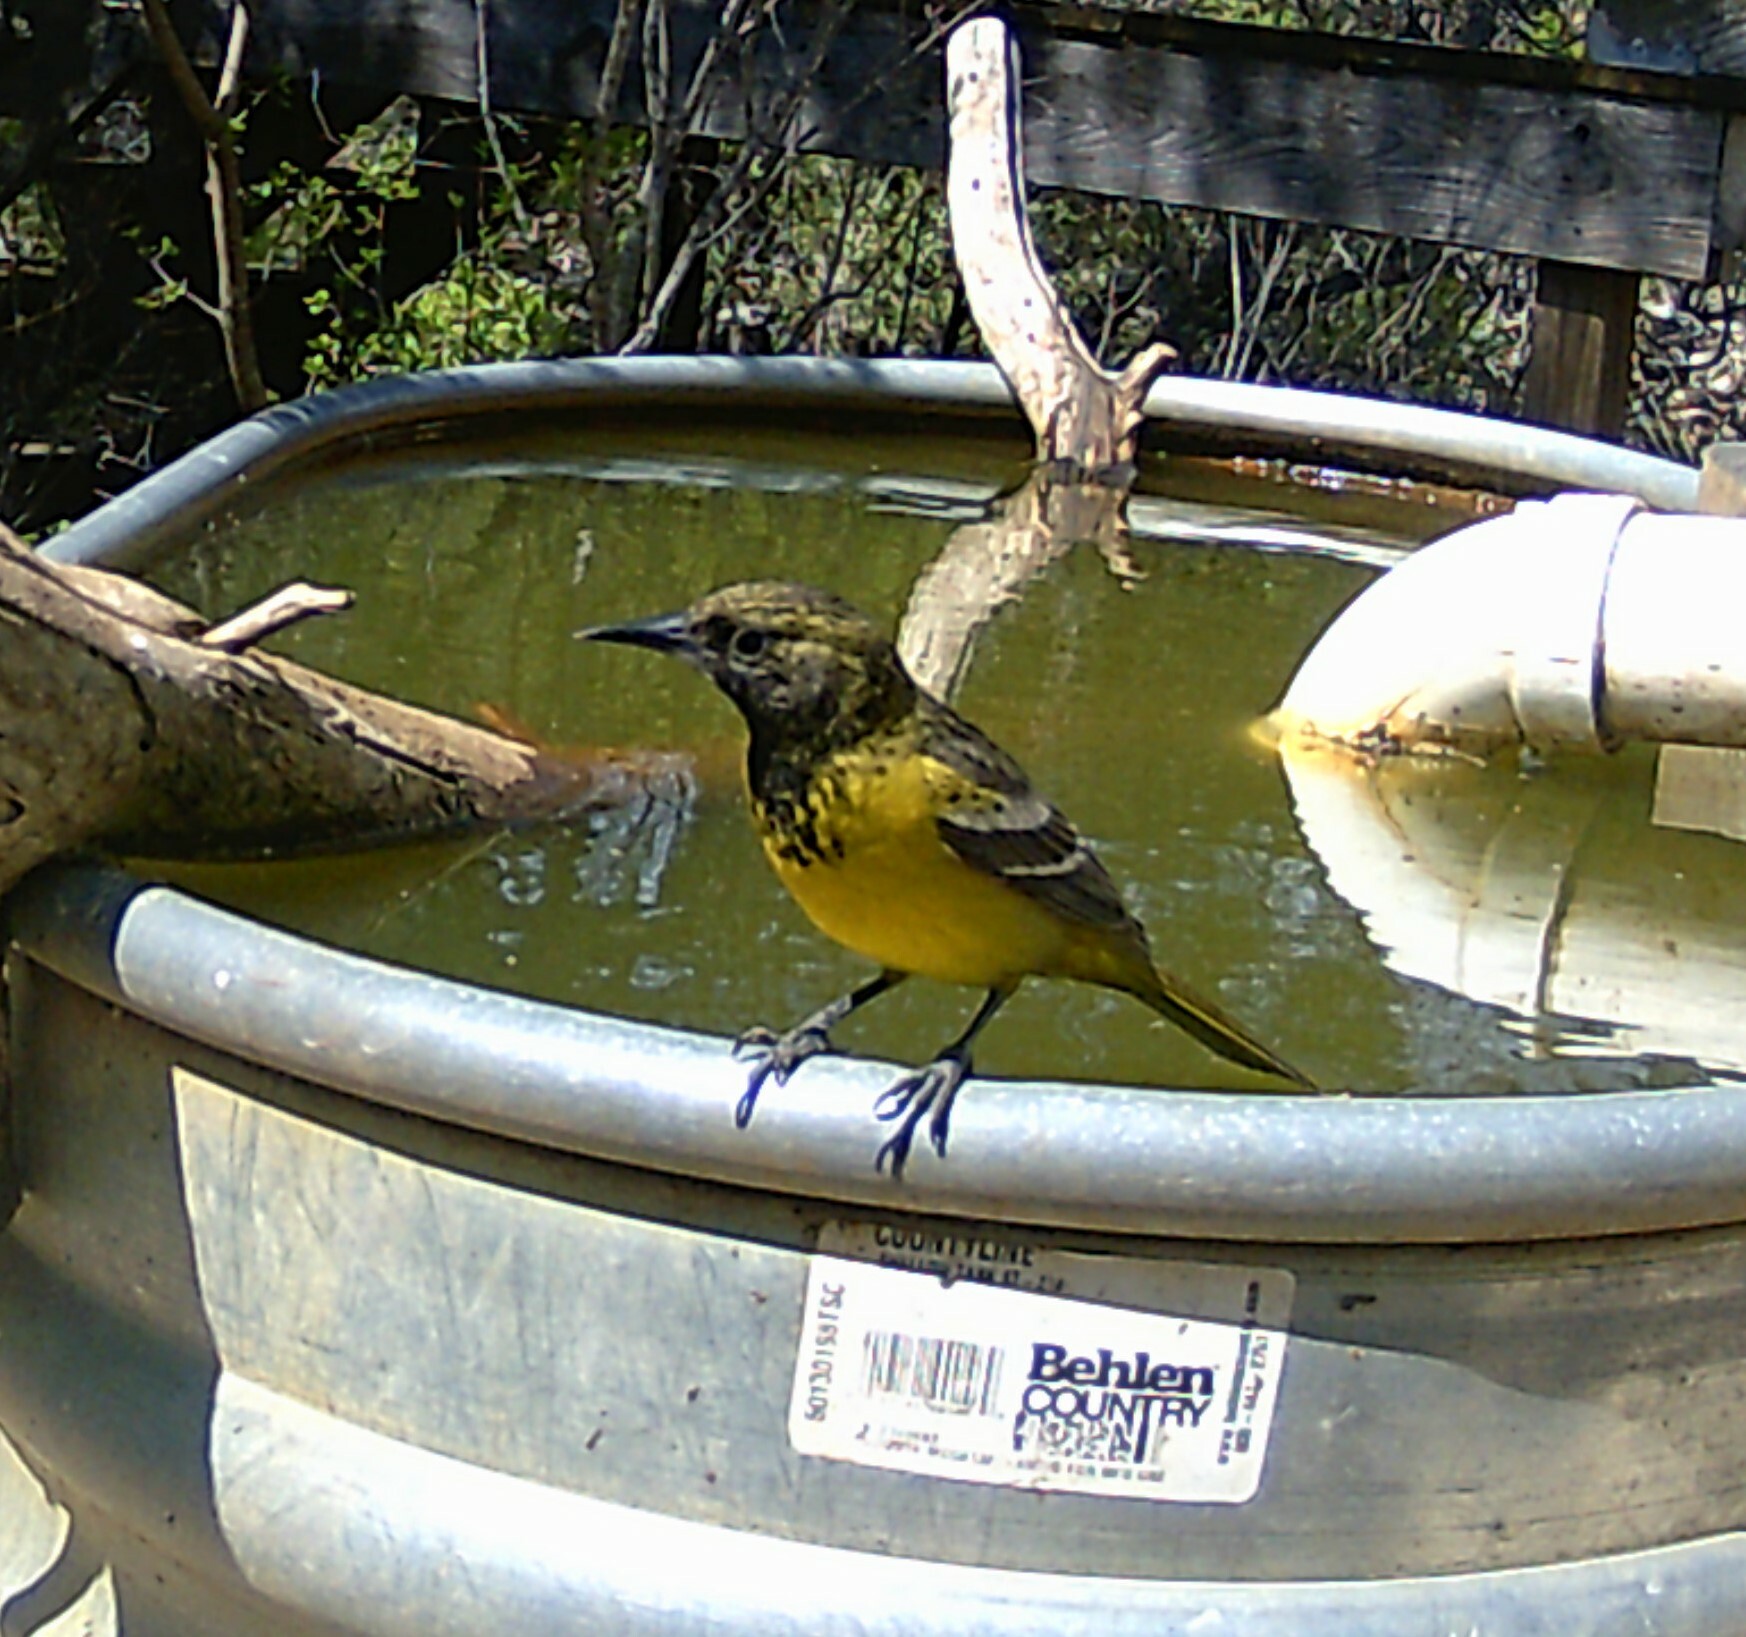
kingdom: Animalia
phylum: Chordata
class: Aves
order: Passeriformes
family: Icteridae
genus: Icterus
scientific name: Icterus parisorum
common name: Scott's oriole
